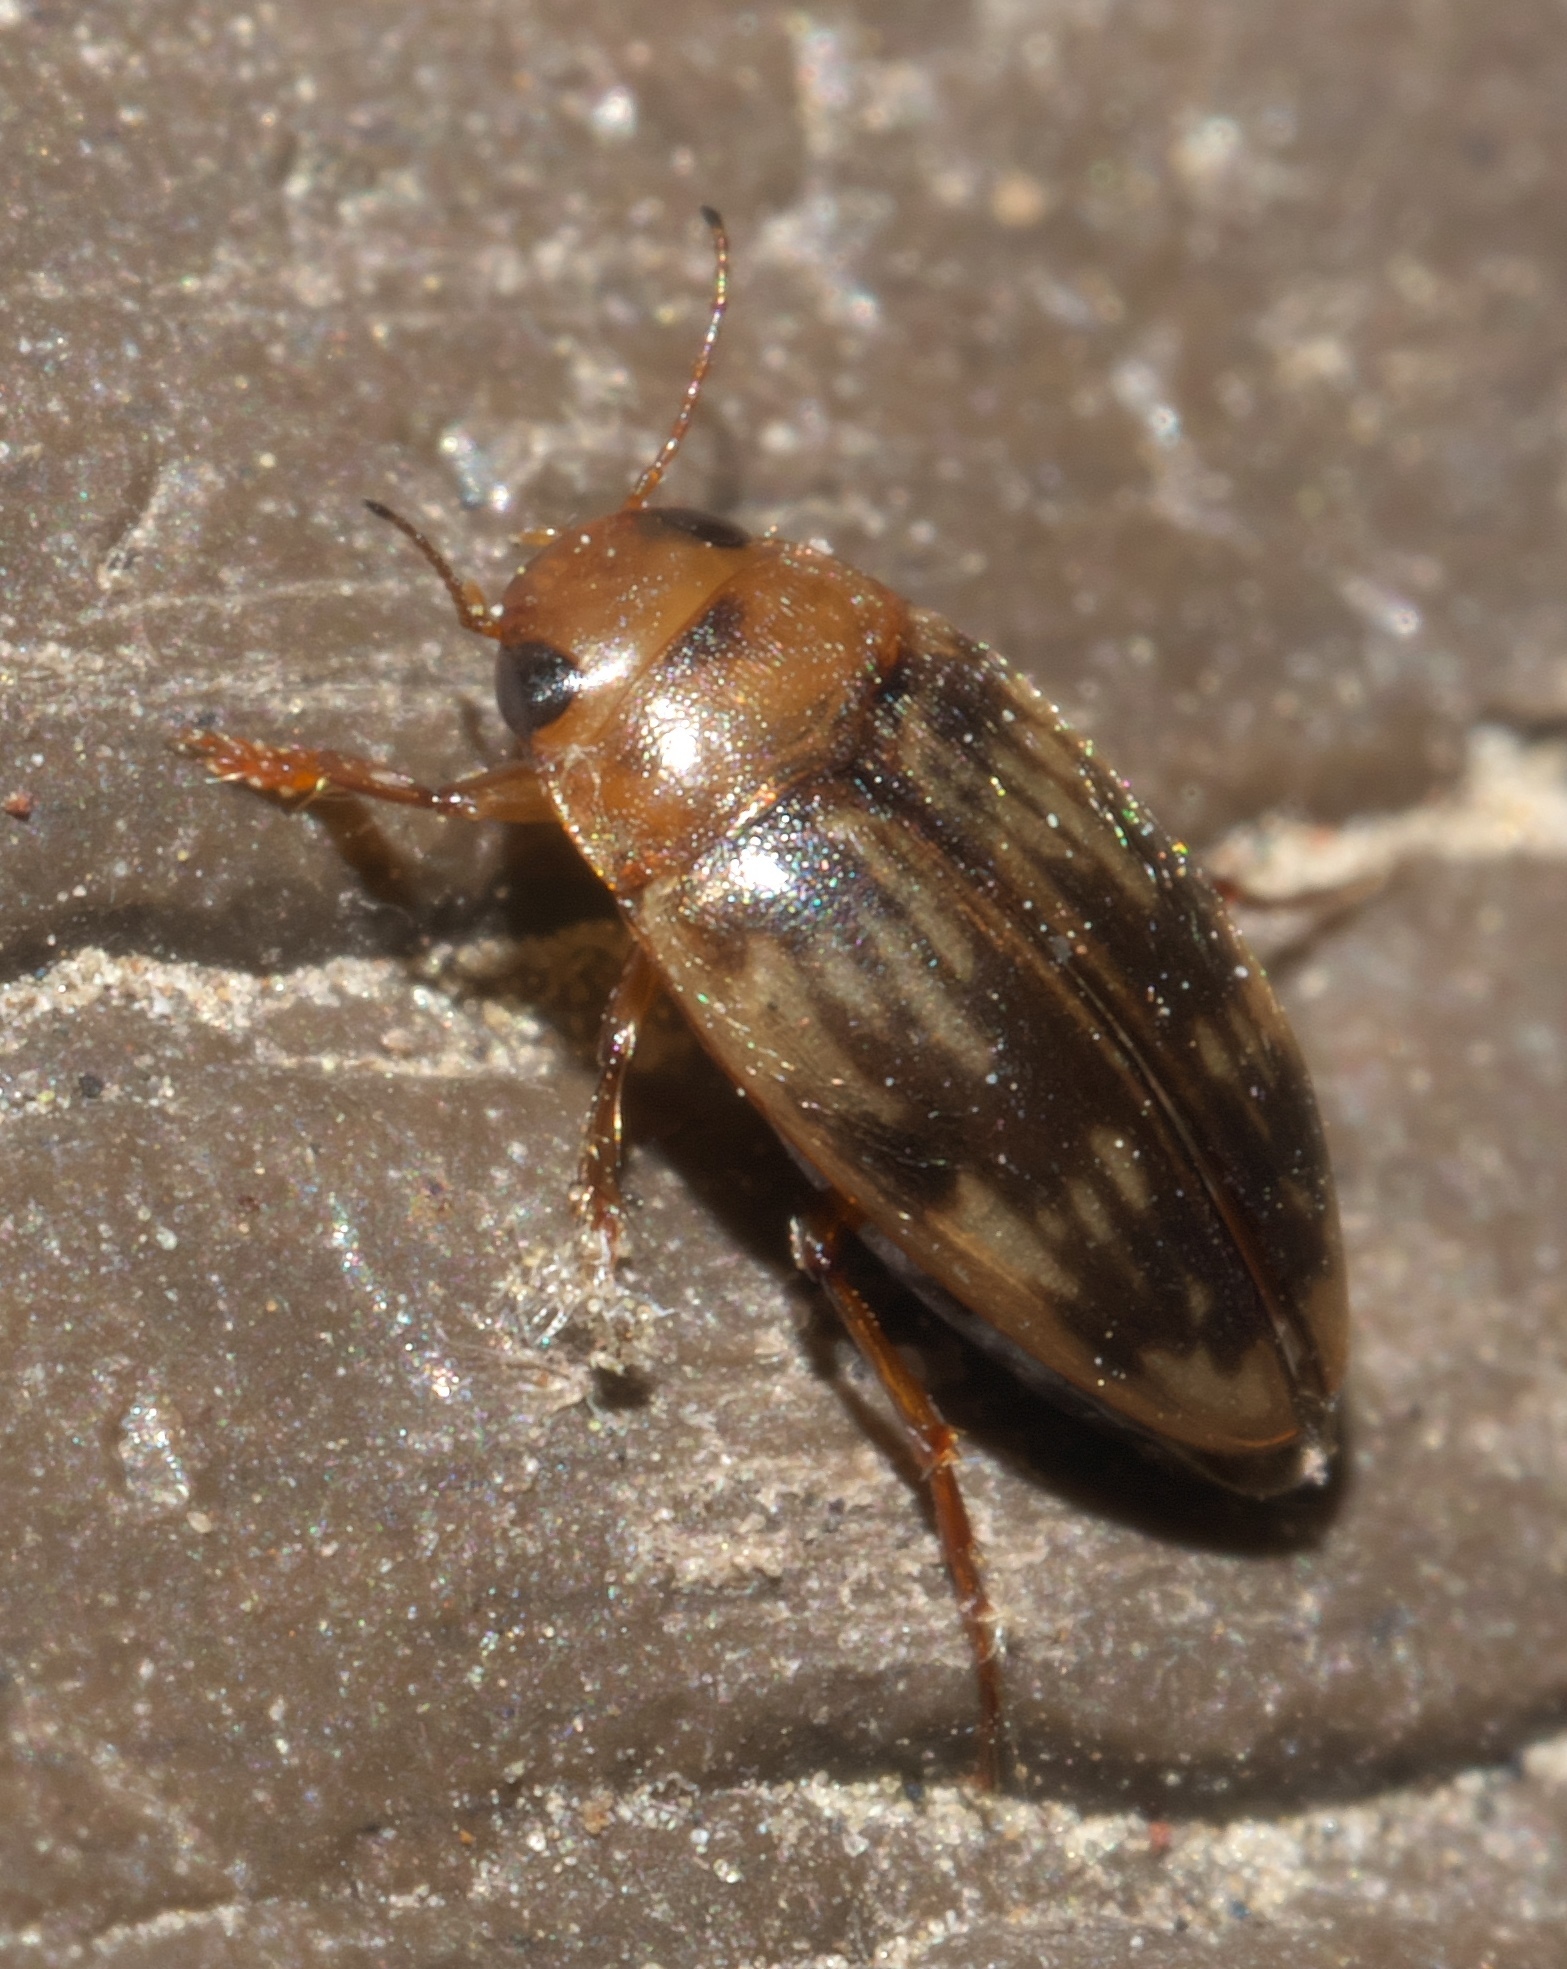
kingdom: Animalia
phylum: Arthropoda
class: Insecta
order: Coleoptera
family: Dytiscidae
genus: Neoporus
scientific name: Neoporus shermani
